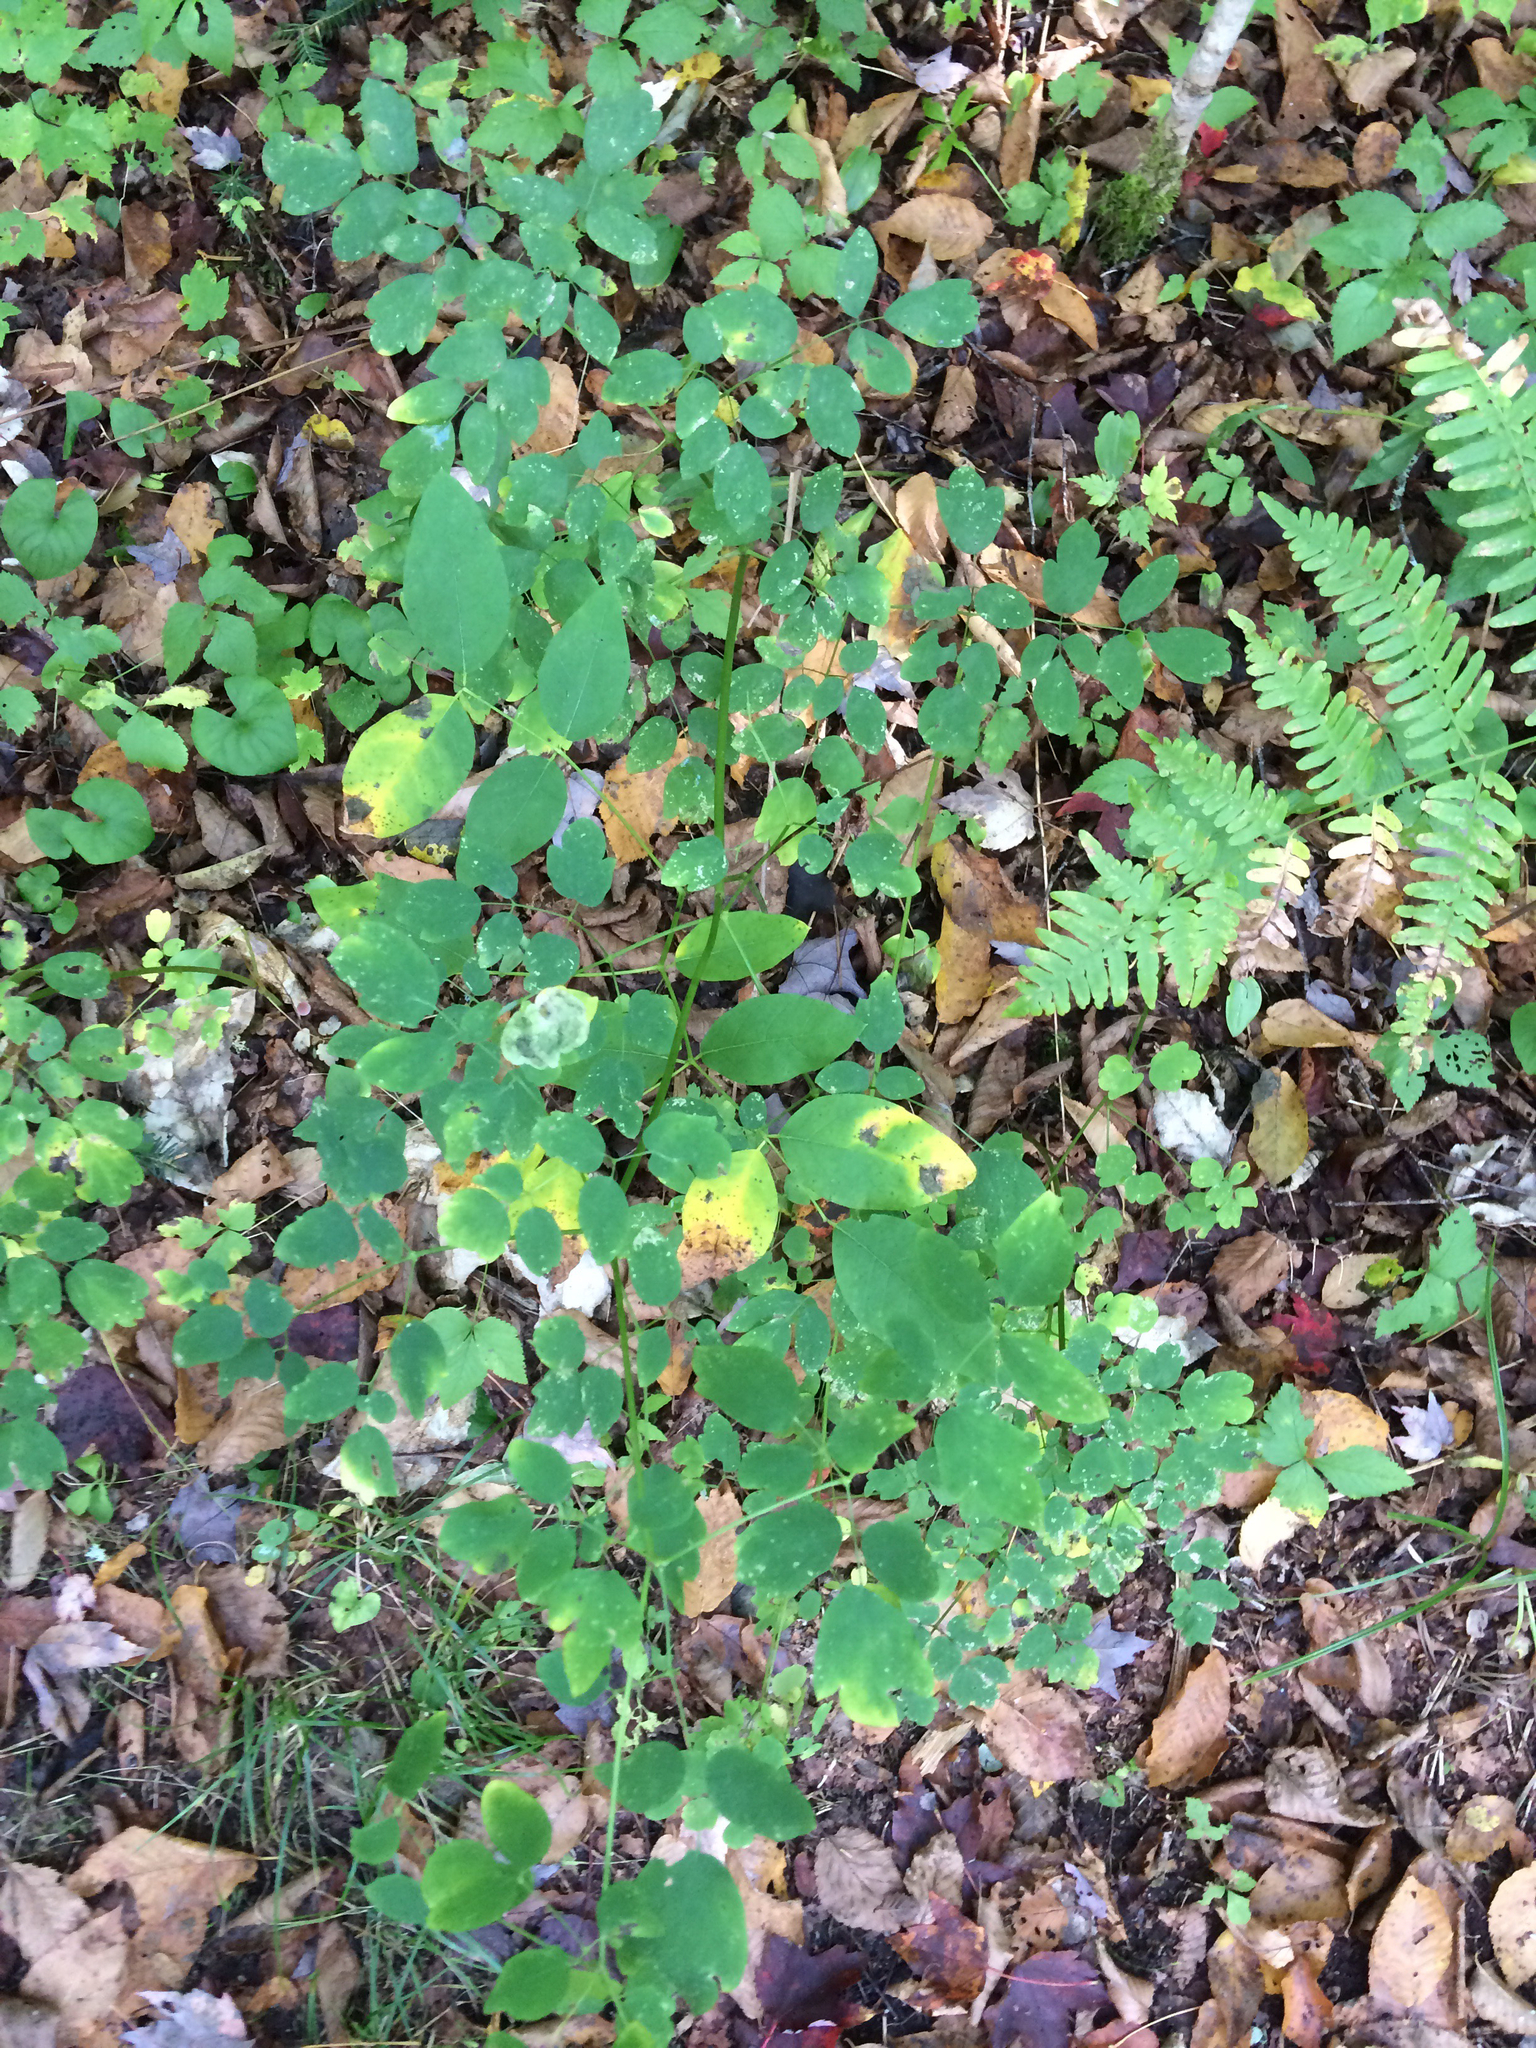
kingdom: Plantae
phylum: Tracheophyta
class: Magnoliopsida
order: Ranunculales
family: Ranunculaceae
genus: Thalictrum
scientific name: Thalictrum pubescens
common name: King-of-the-meadow
